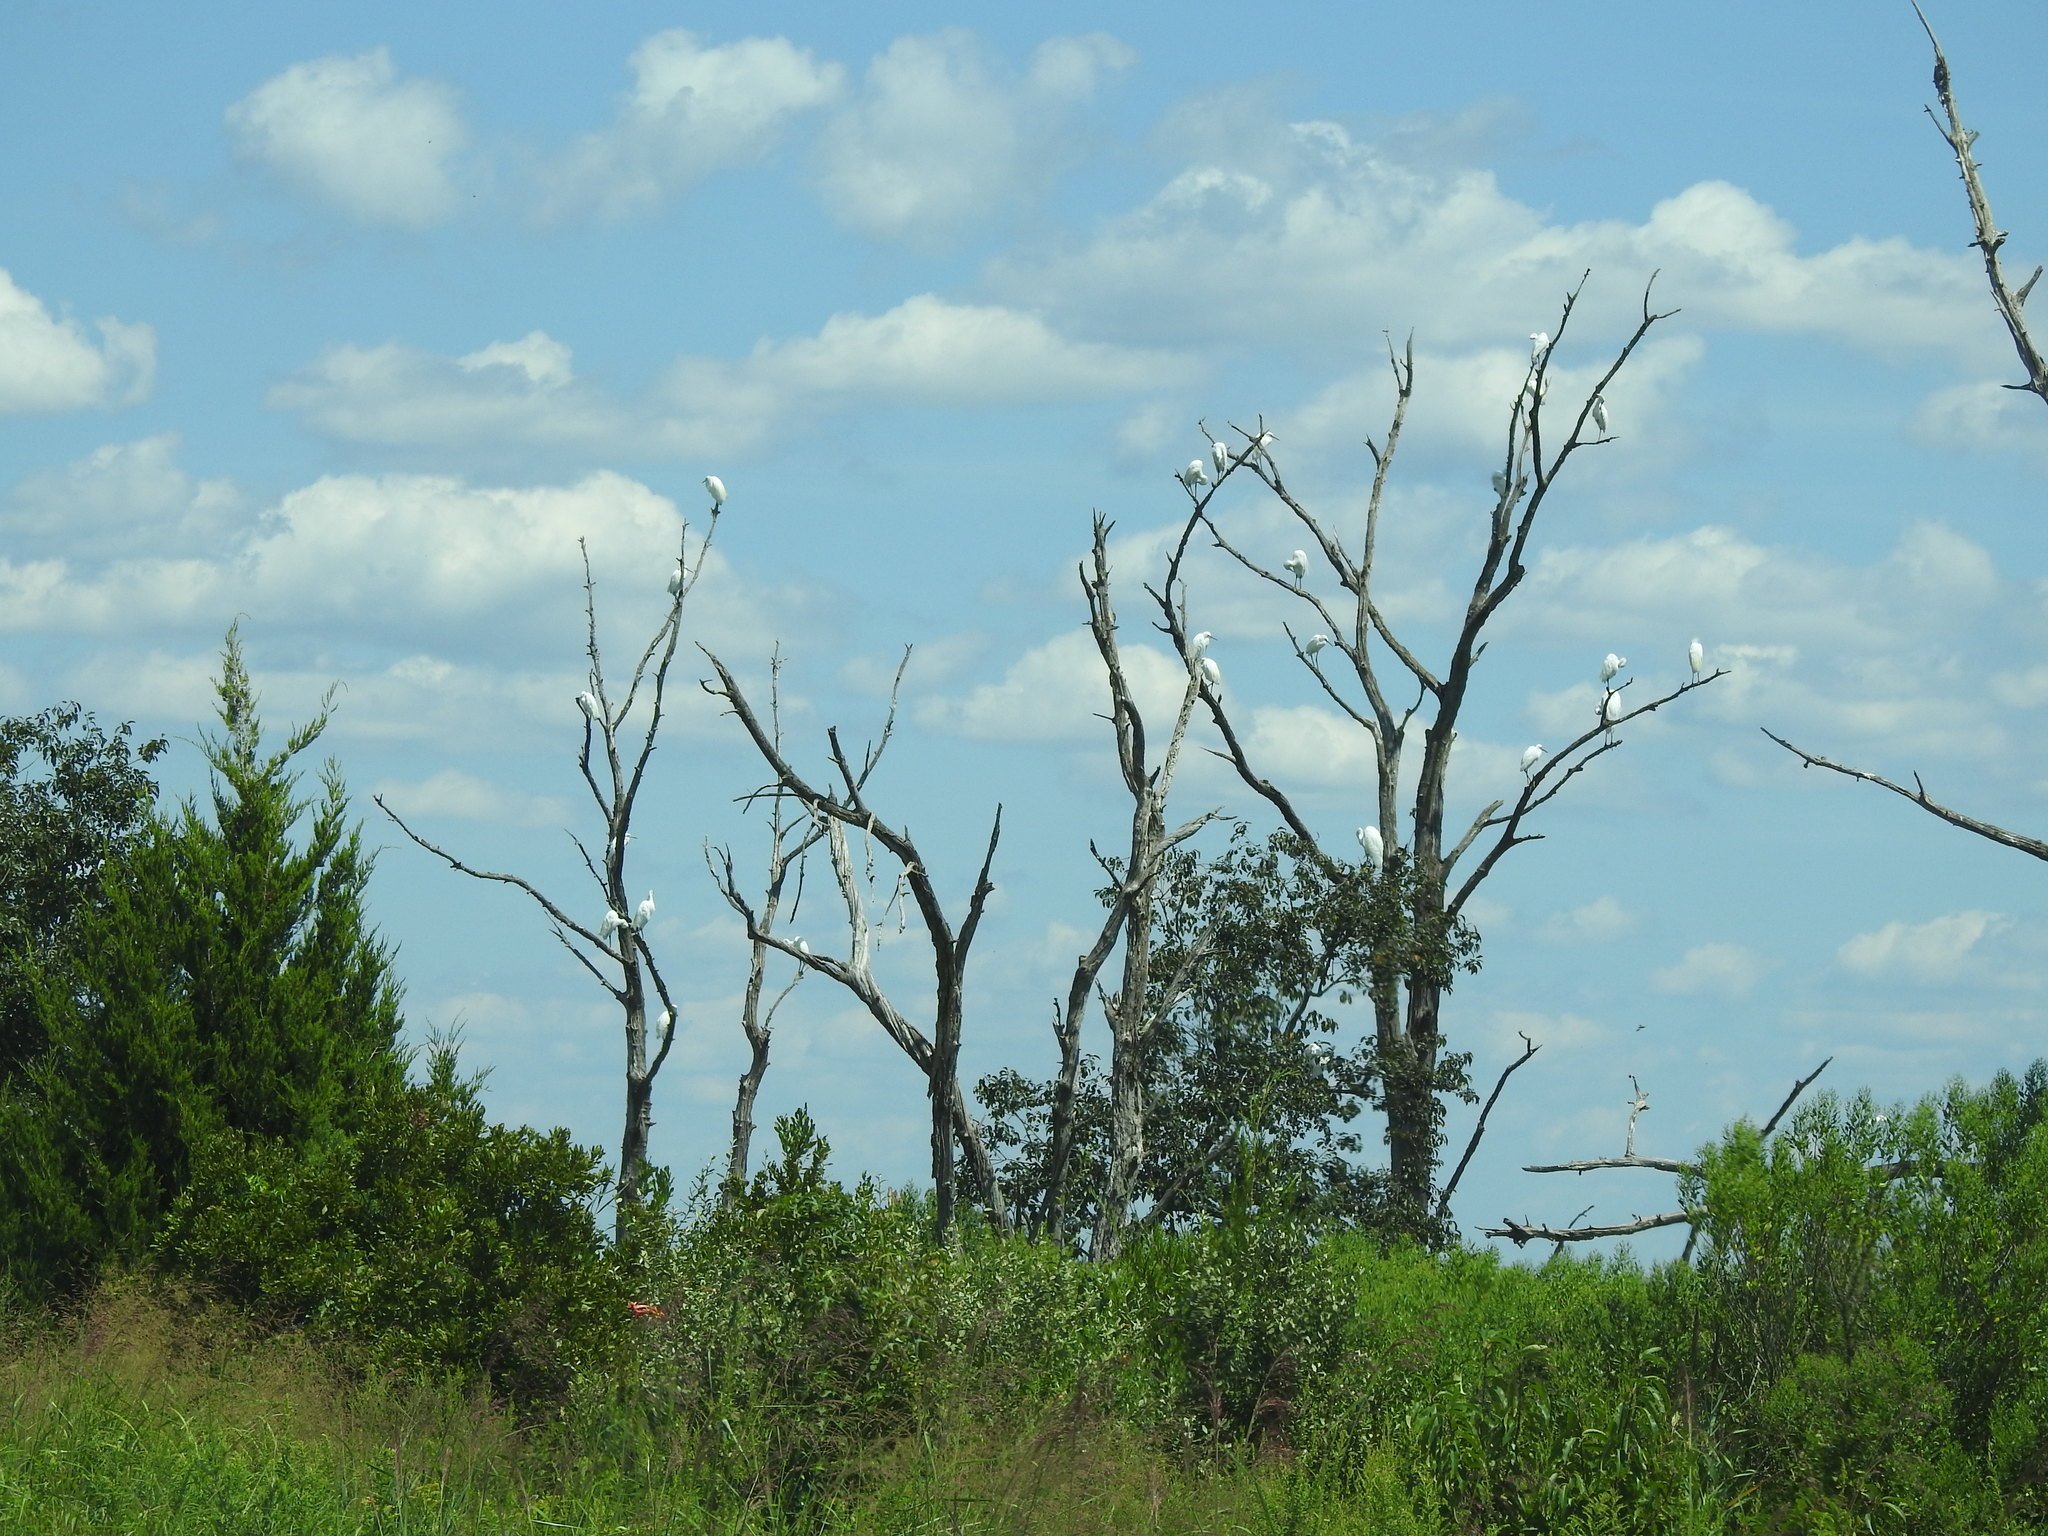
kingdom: Animalia
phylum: Chordata
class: Aves
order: Pelecaniformes
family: Ardeidae
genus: Egretta
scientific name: Egretta thula
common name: Snowy egret
